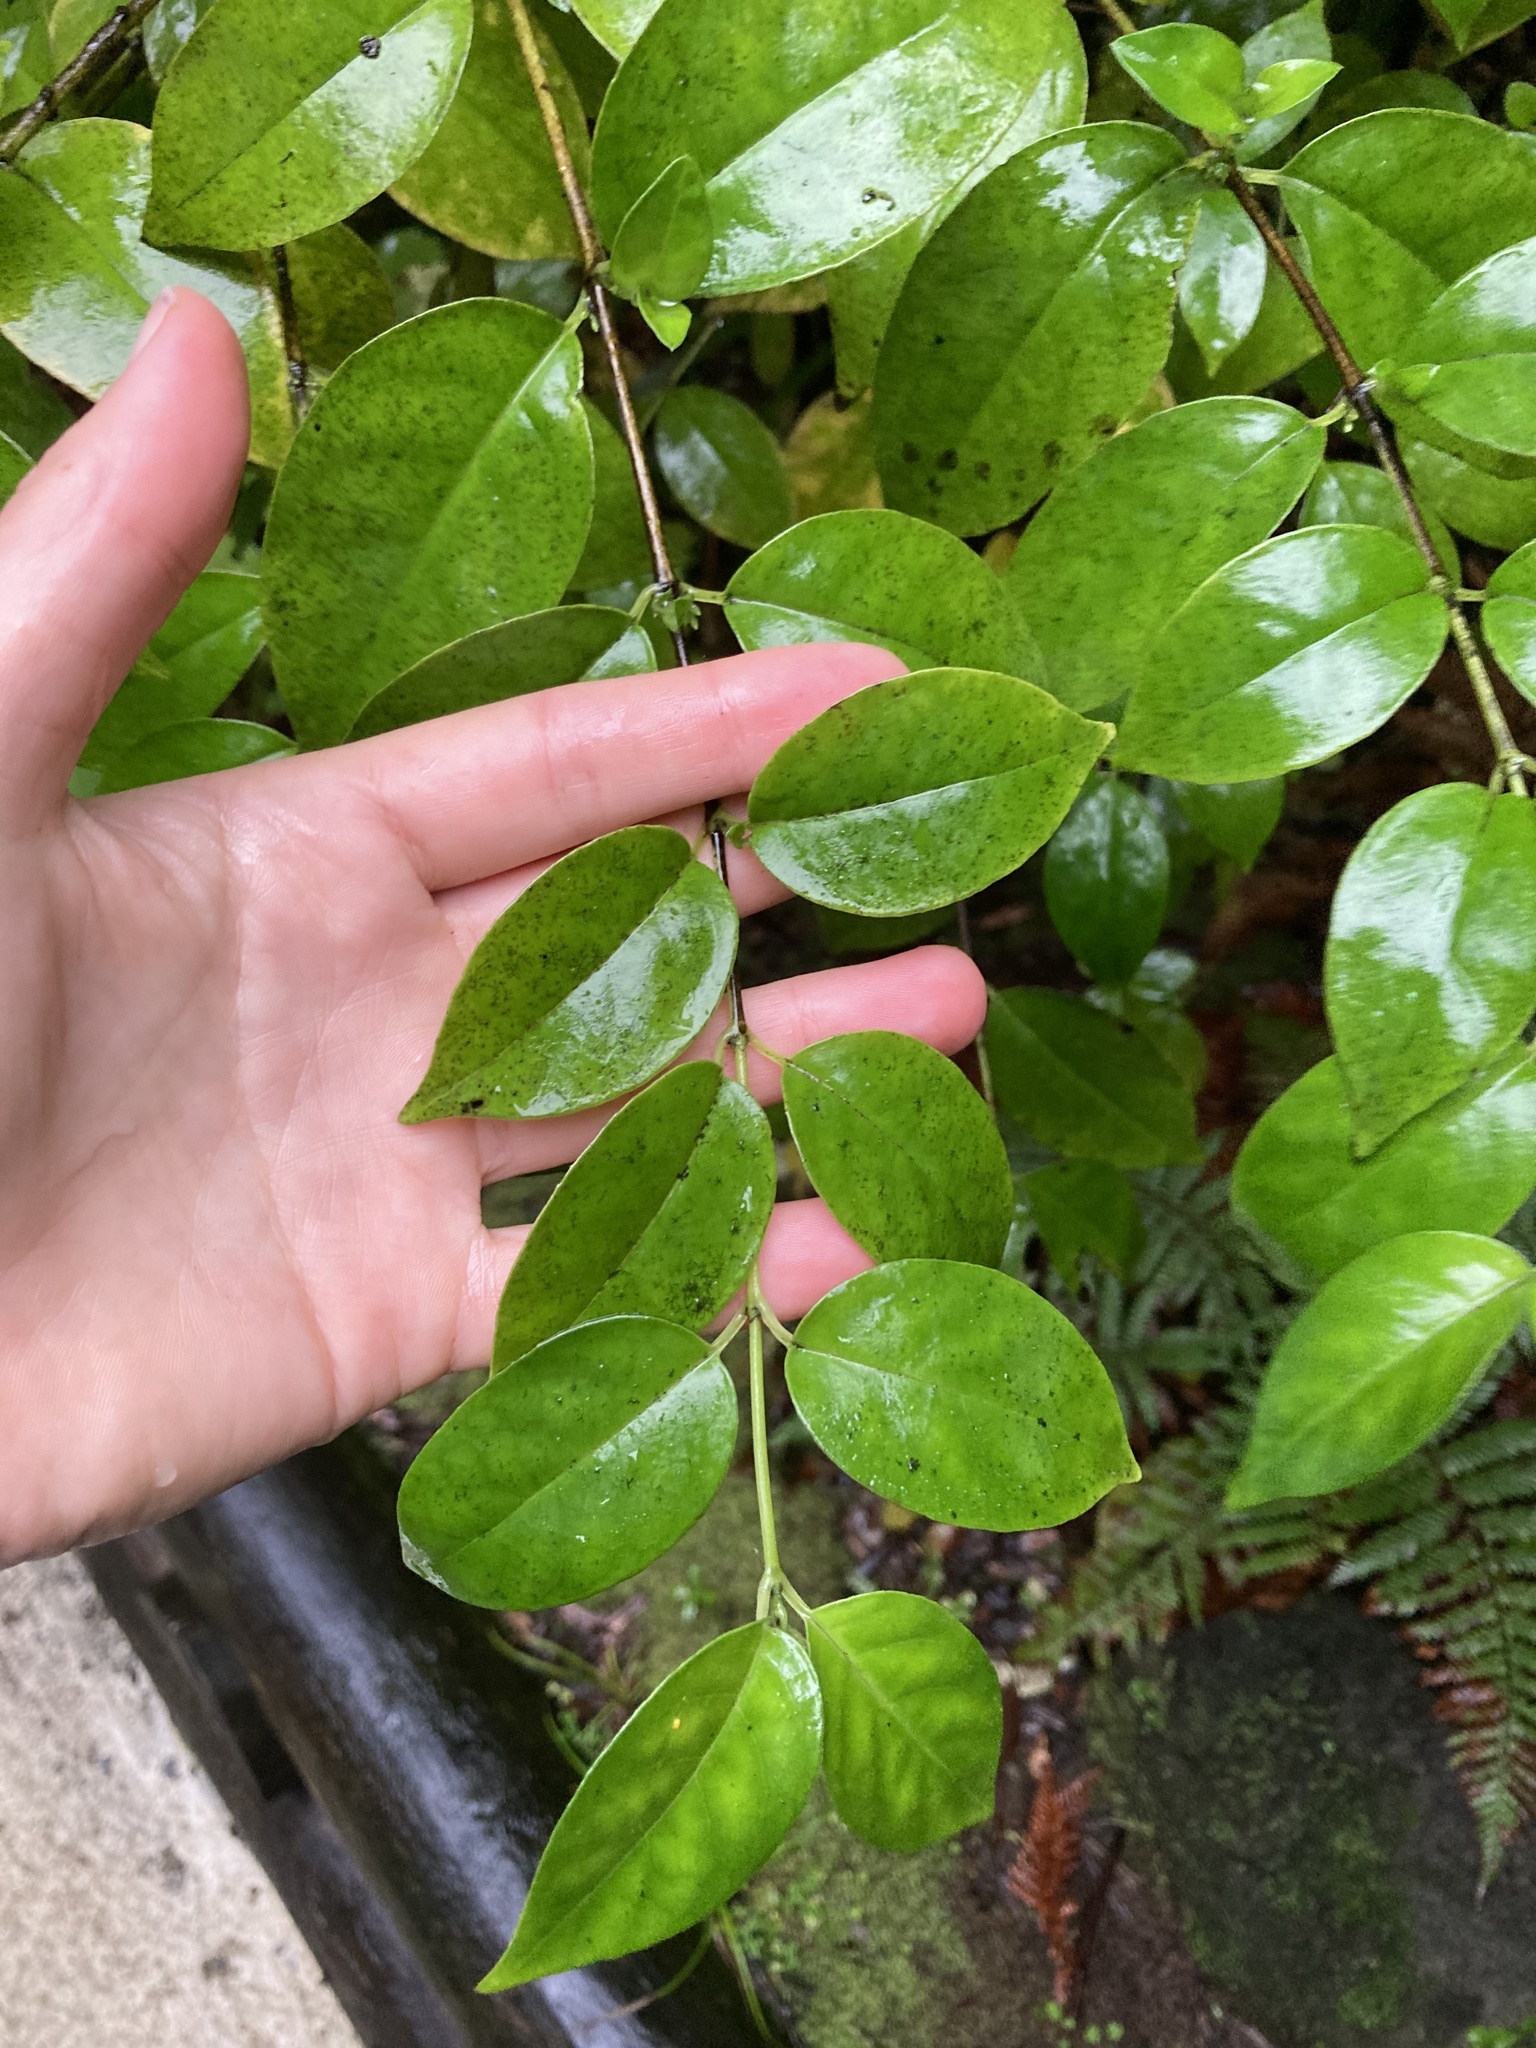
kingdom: Plantae
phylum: Tracheophyta
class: Magnoliopsida
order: Gentianales
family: Loganiaceae
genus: Geniostoma
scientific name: Geniostoma ligustrifolium
